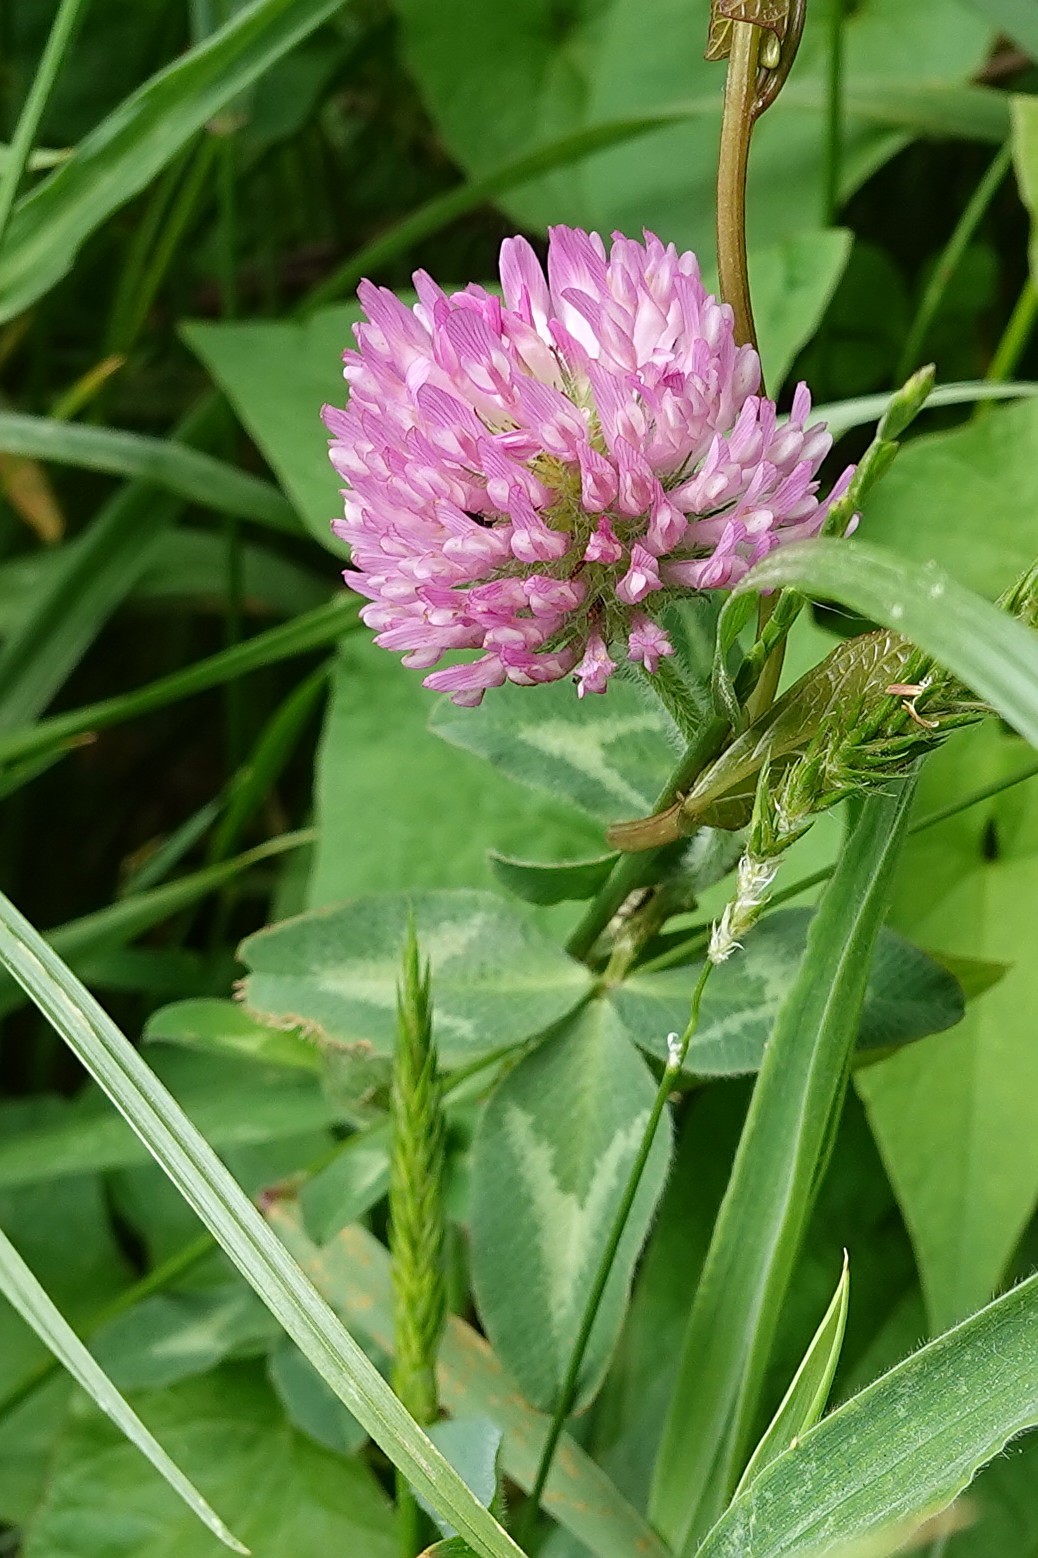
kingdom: Plantae
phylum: Tracheophyta
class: Magnoliopsida
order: Fabales
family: Fabaceae
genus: Trifolium
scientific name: Trifolium pratense
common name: Red clover
